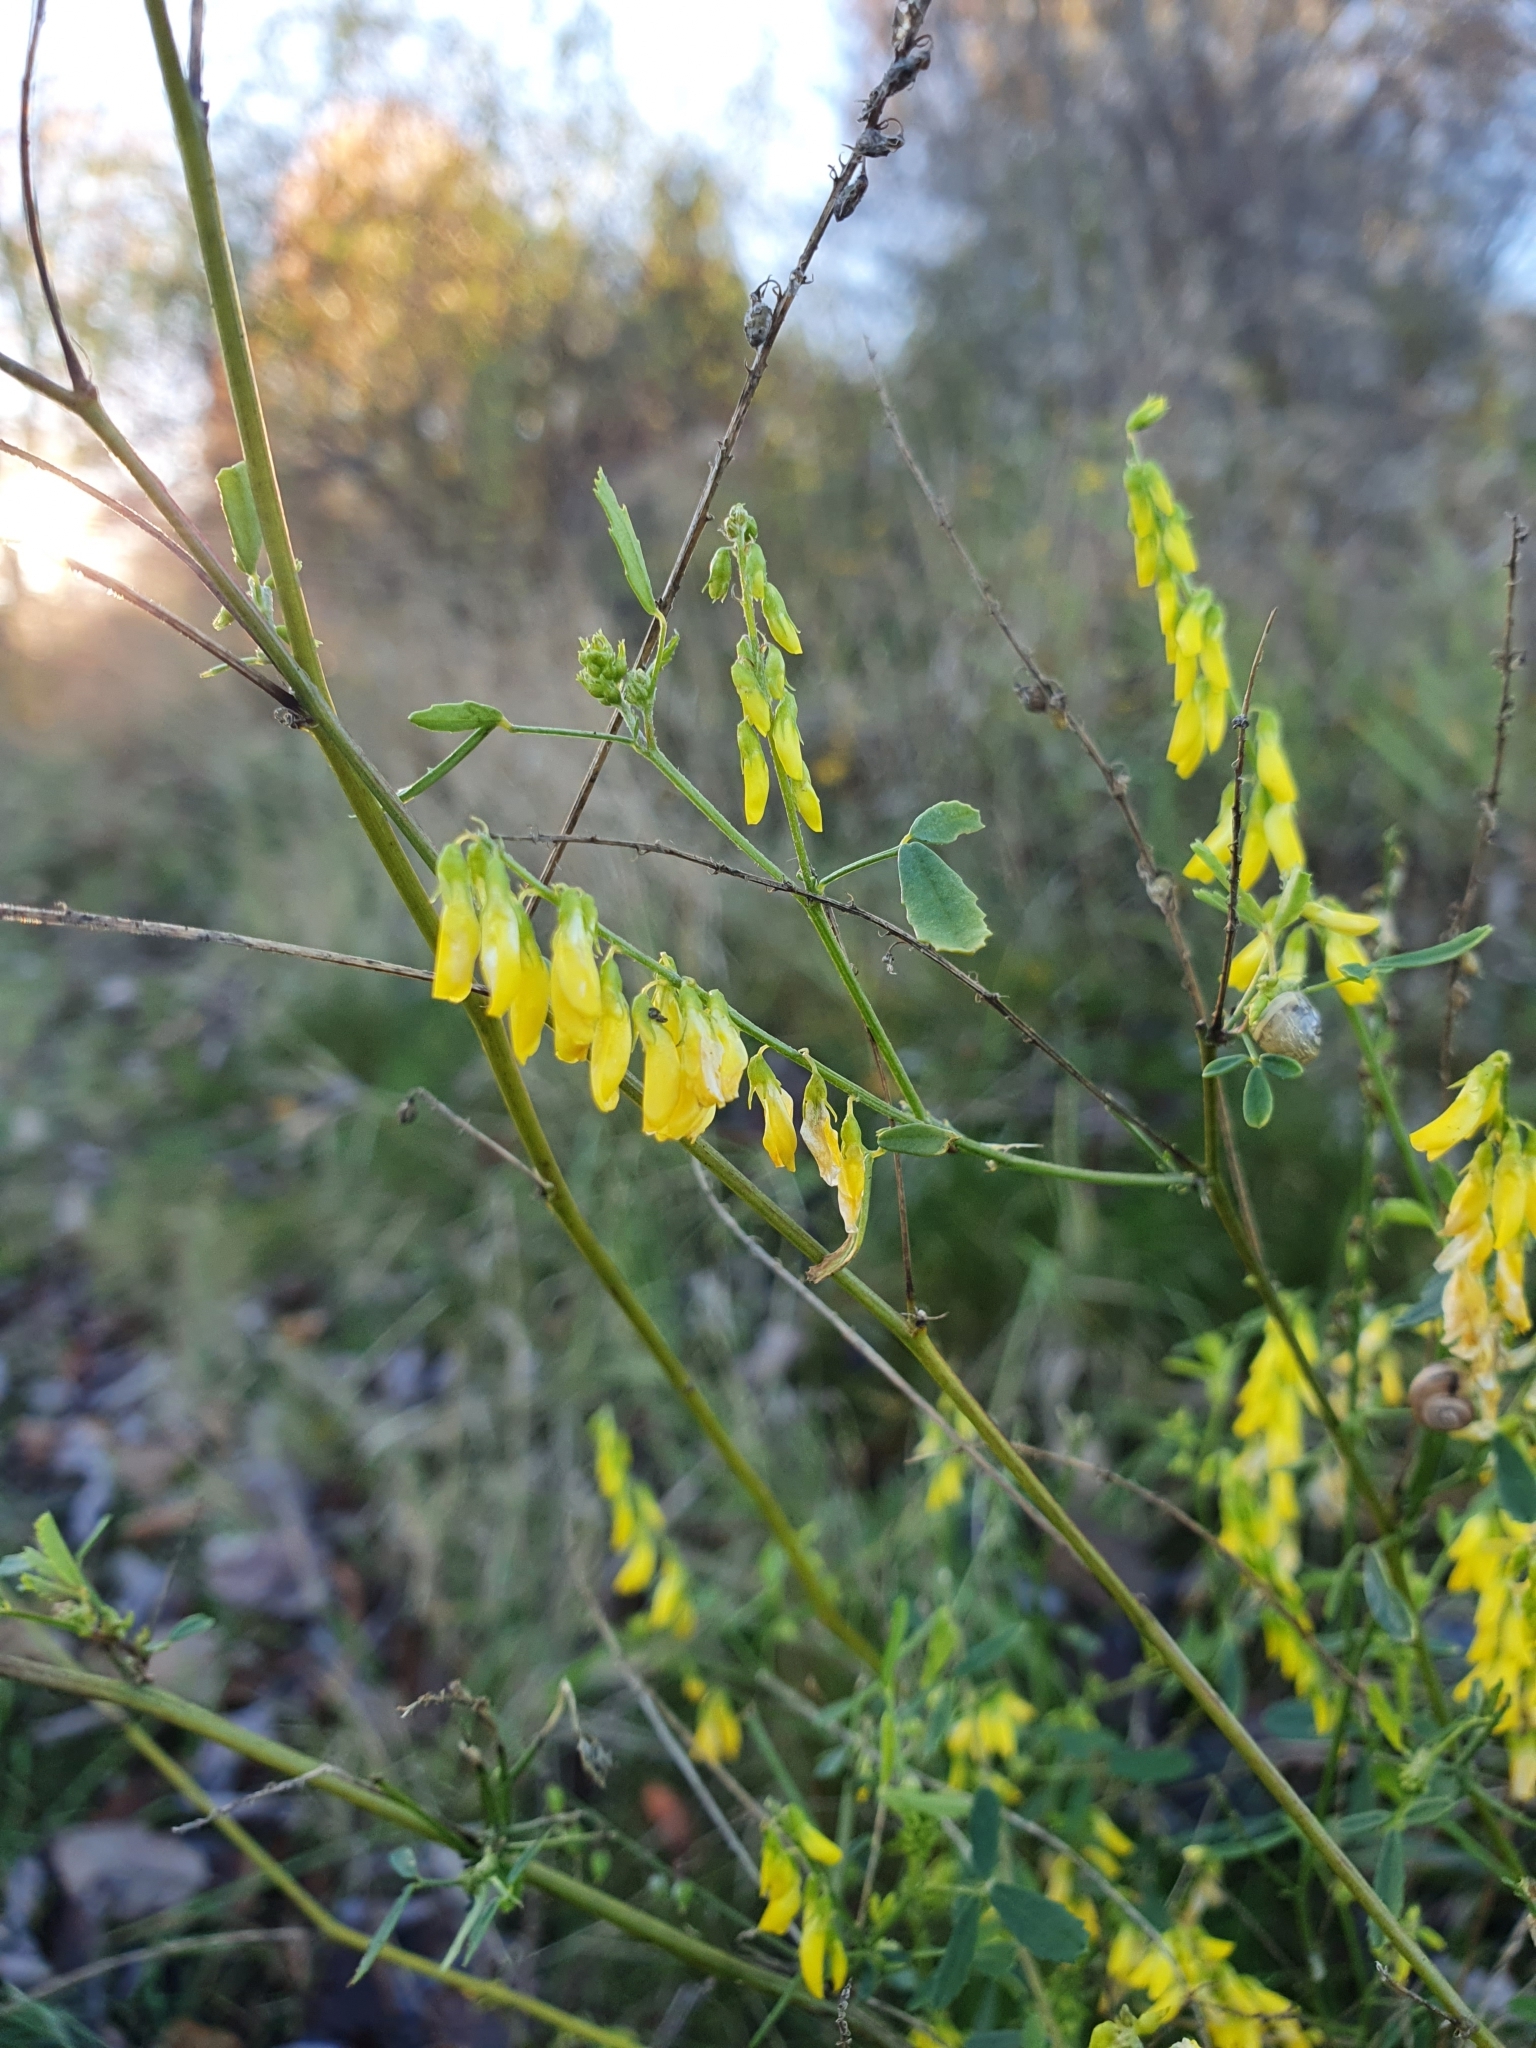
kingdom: Plantae
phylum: Tracheophyta
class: Magnoliopsida
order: Fabales
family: Fabaceae
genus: Melilotus
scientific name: Melilotus officinalis
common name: Sweetclover
